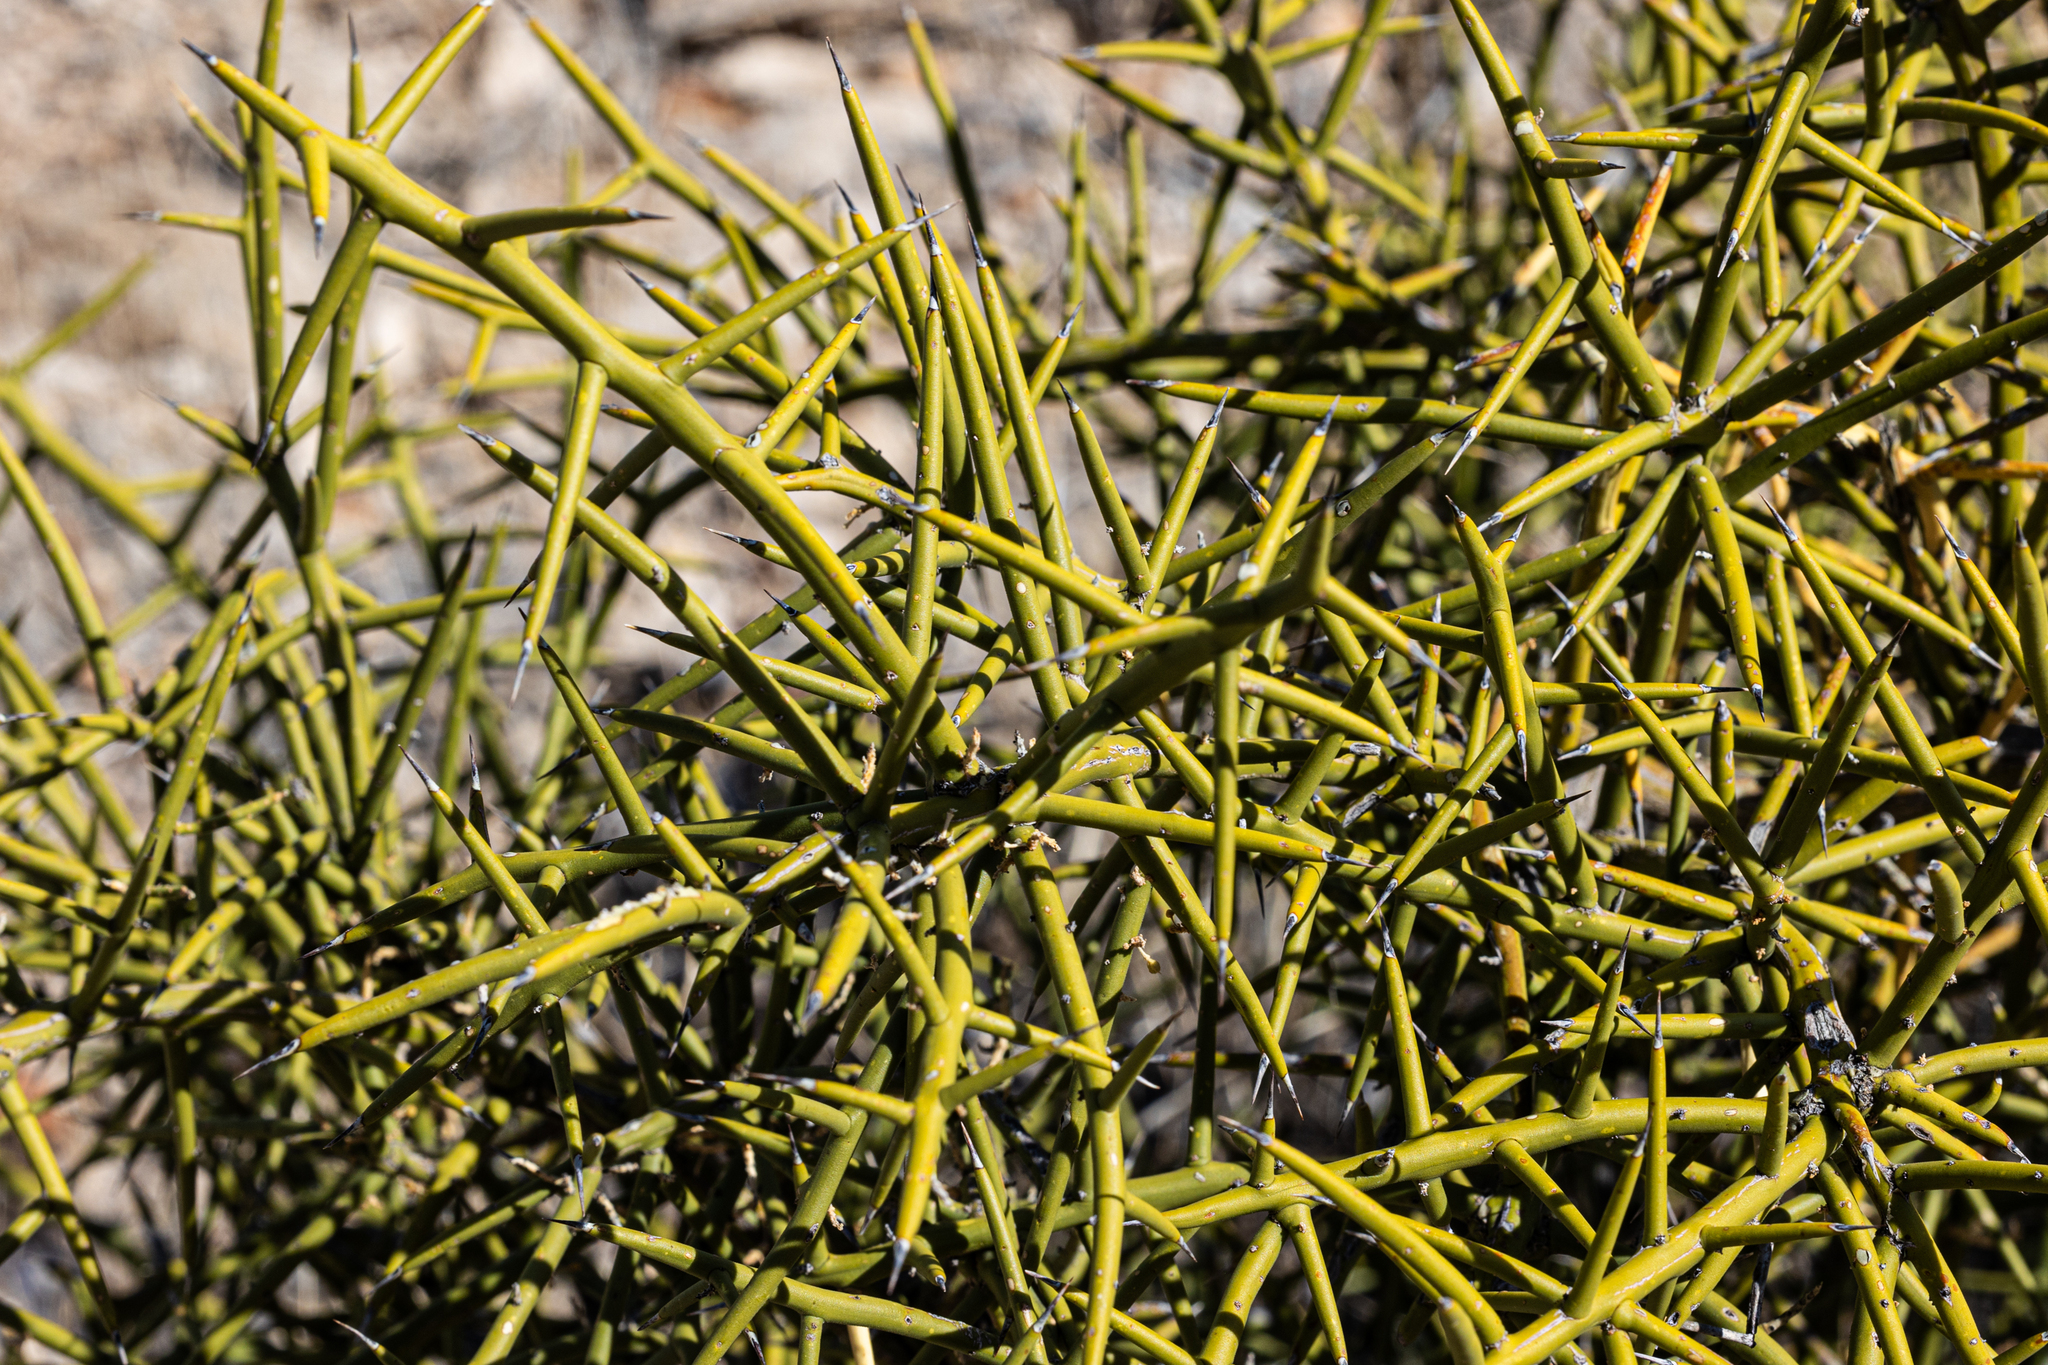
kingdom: Plantae
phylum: Tracheophyta
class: Magnoliopsida
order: Brassicales
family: Koeberliniaceae
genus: Koeberlinia
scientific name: Koeberlinia spinosa
